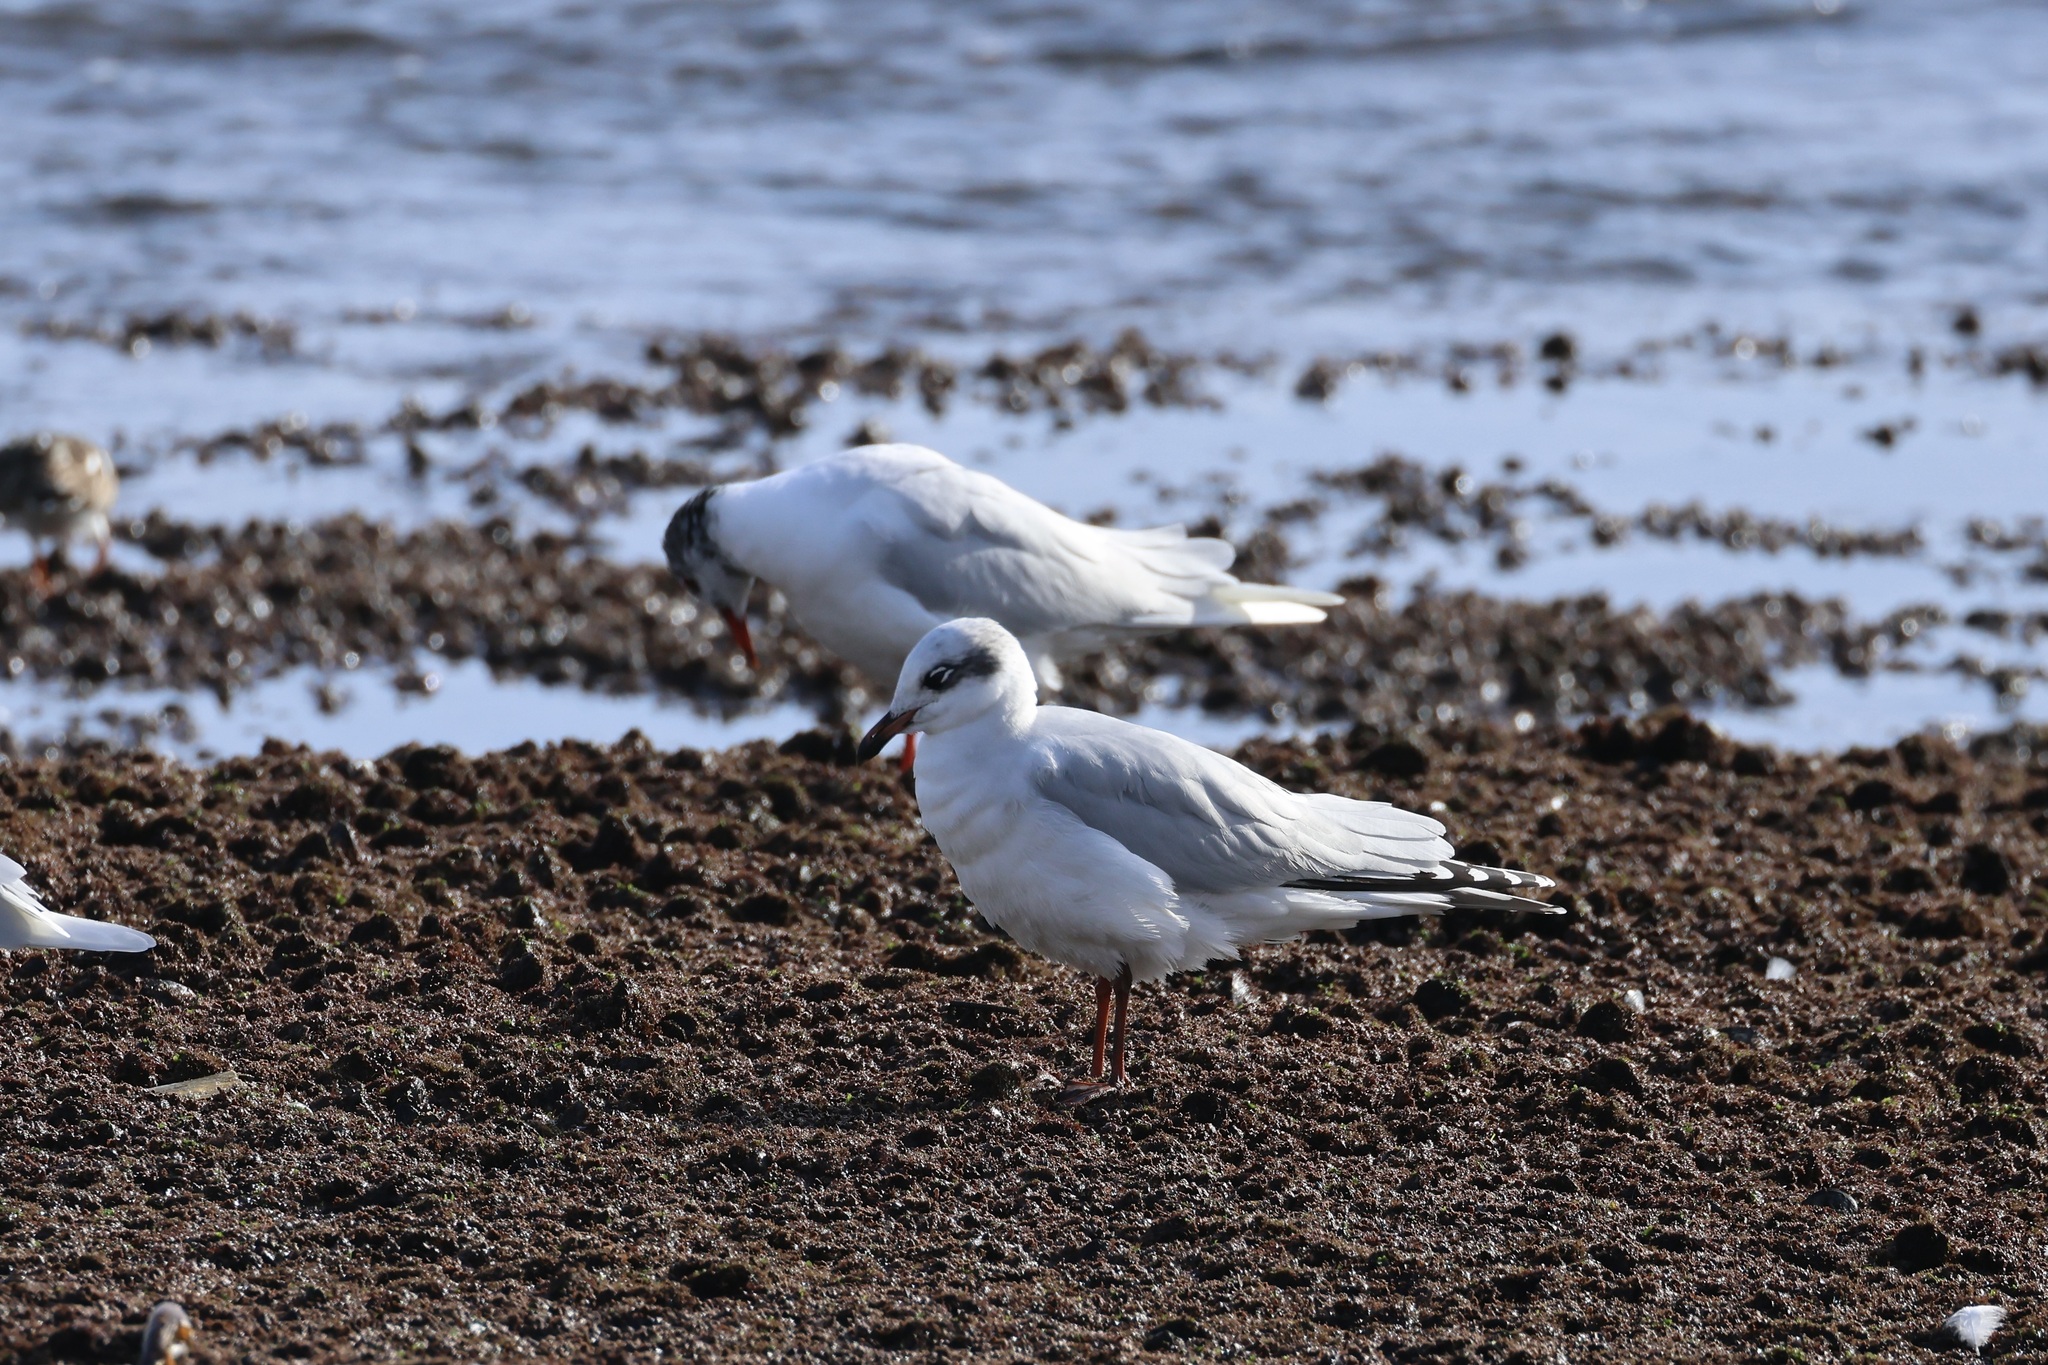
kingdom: Animalia
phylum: Chordata
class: Aves
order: Charadriiformes
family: Laridae
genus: Ichthyaetus
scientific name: Ichthyaetus melanocephalus
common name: Mediterranean gull
